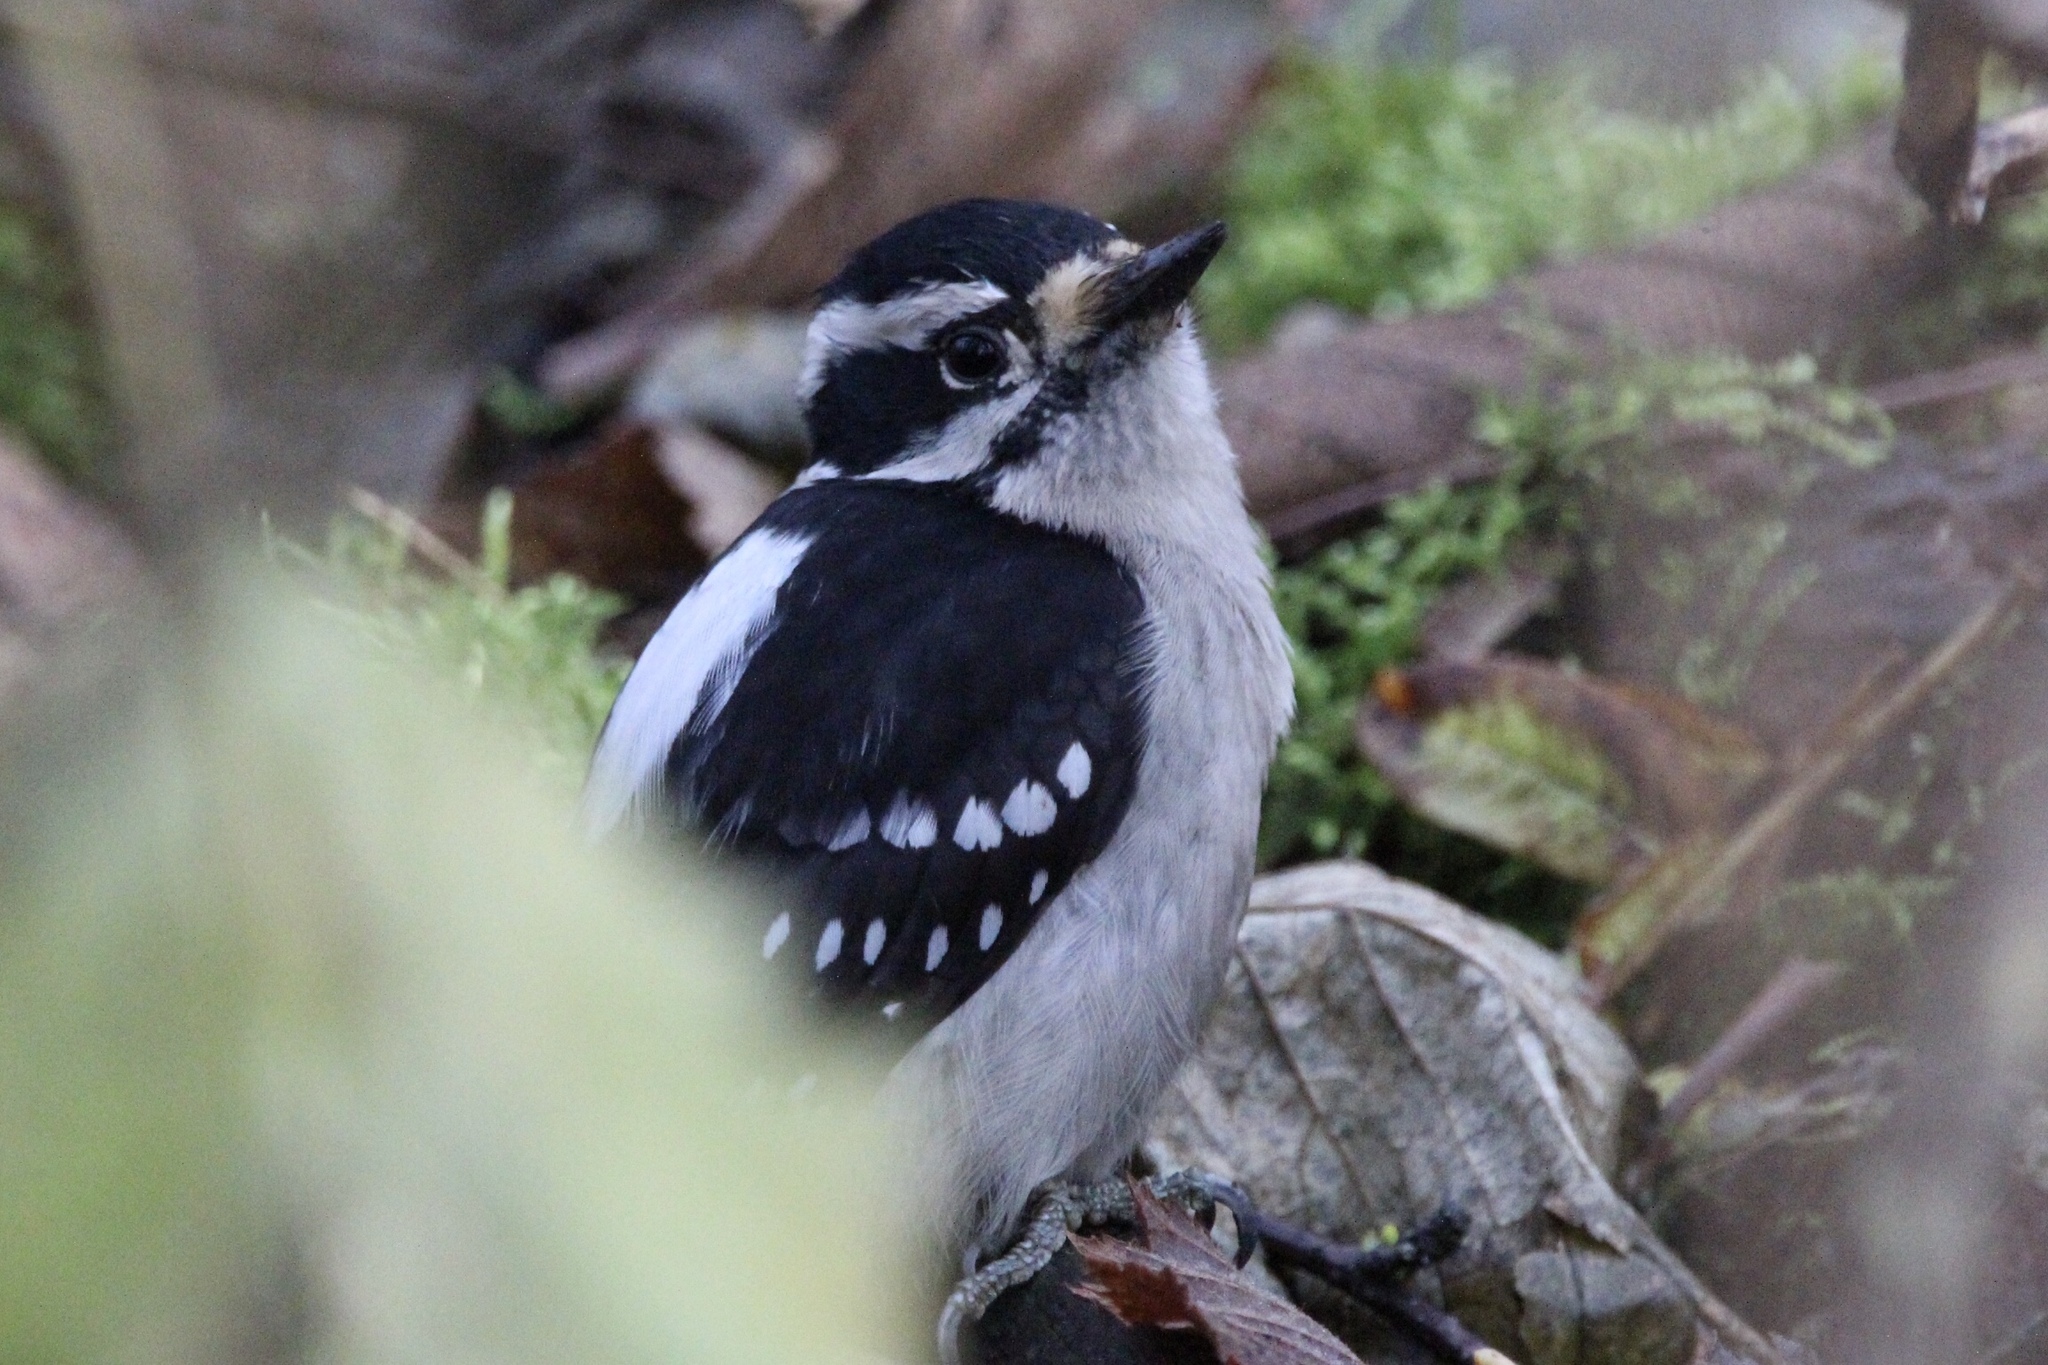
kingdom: Animalia
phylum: Chordata
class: Aves
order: Piciformes
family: Picidae
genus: Dryobates
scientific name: Dryobates pubescens
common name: Downy woodpecker
